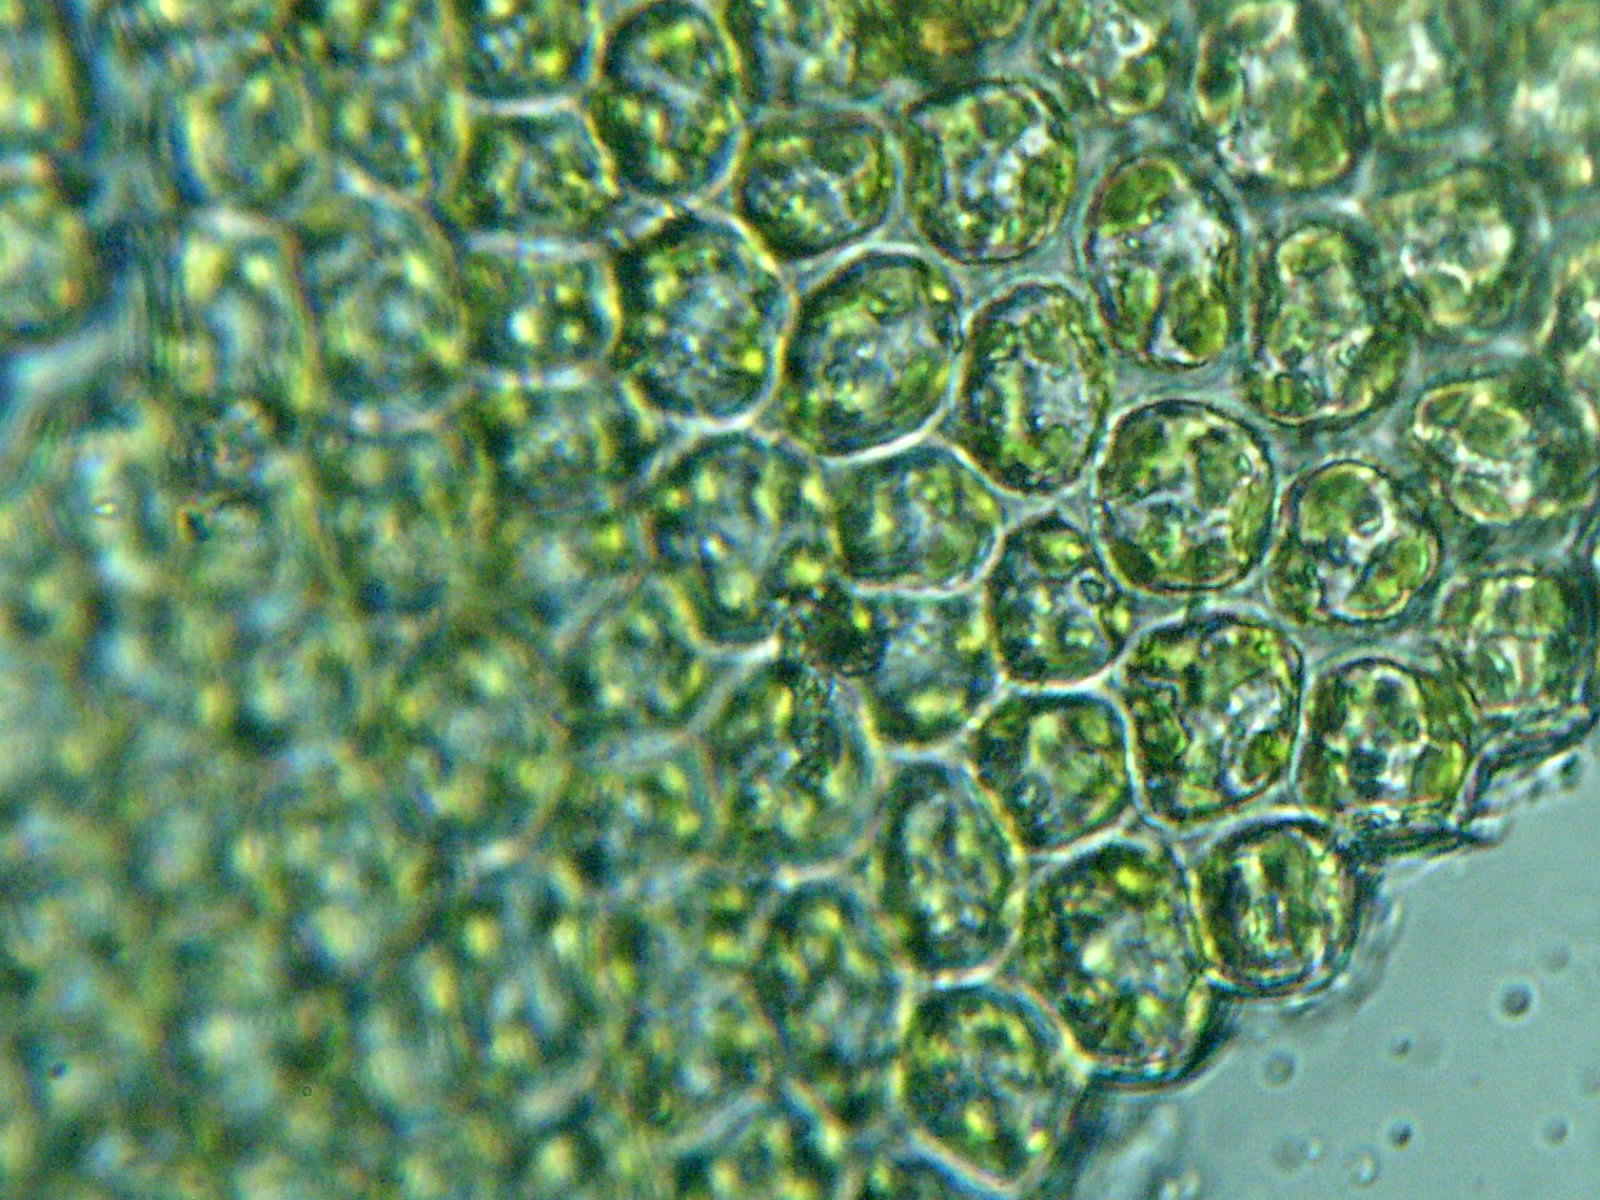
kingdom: Plantae
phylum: Bryophyta
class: Polytrichopsida
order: Polytrichales
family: Polytrichaceae
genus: Atrichum
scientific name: Atrichum undulatum
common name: Common smoothcap
